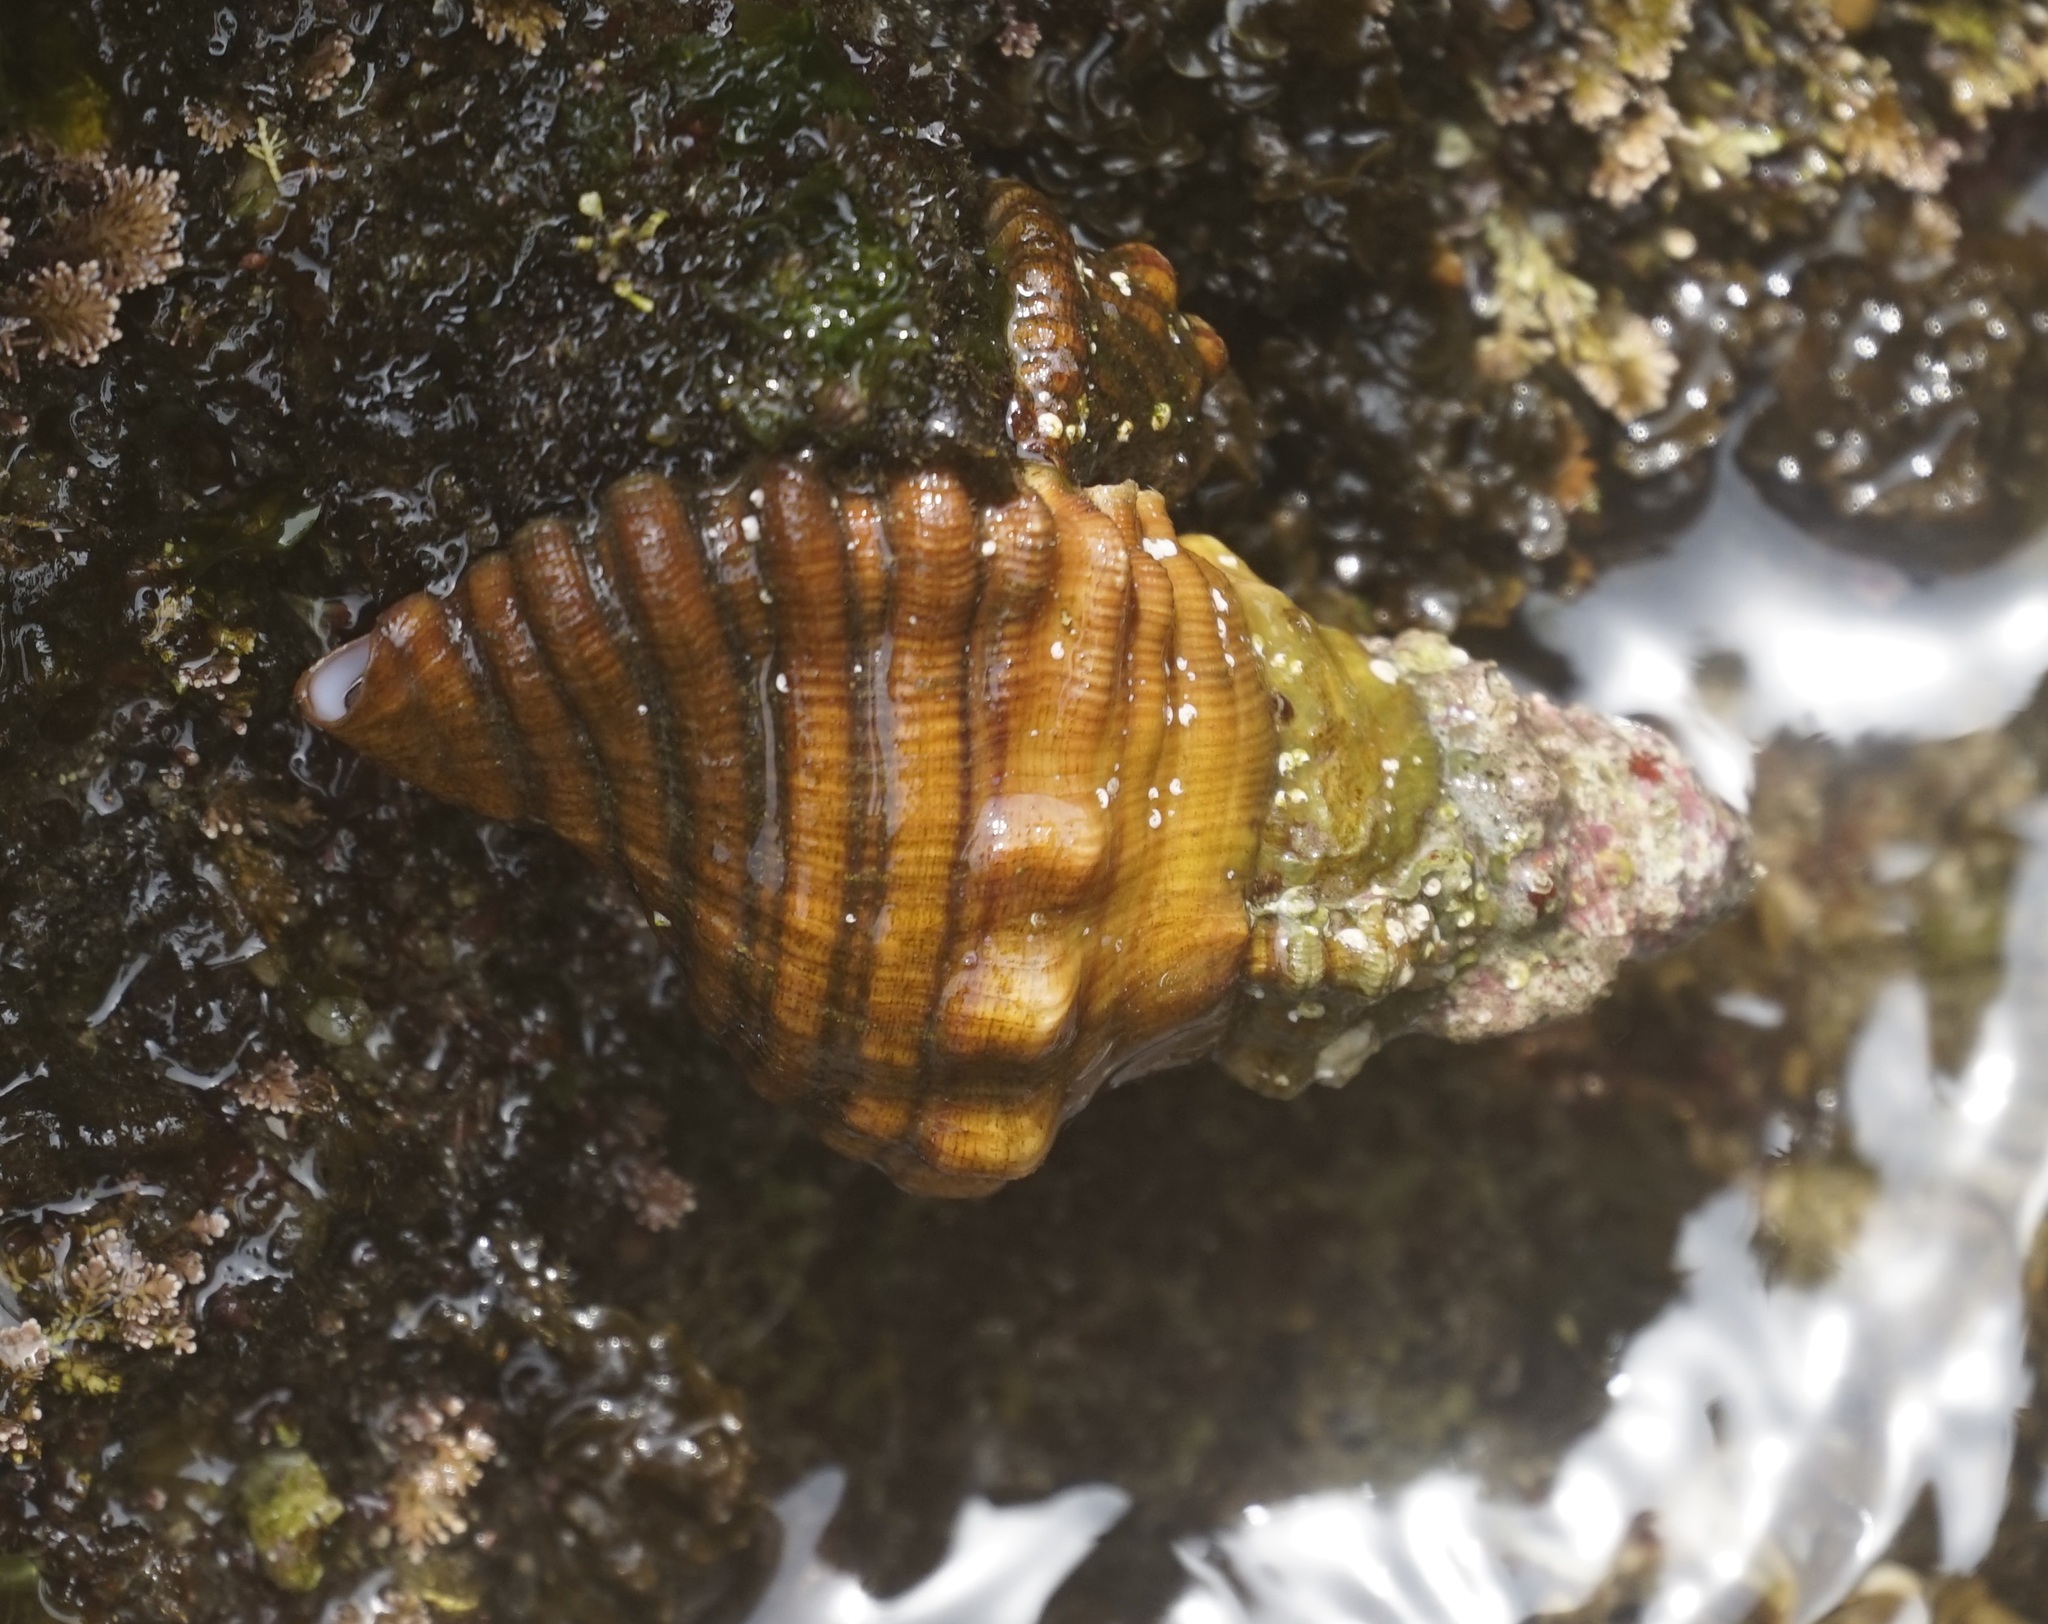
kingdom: Animalia
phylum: Mollusca
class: Gastropoda
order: Littorinimorpha
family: Cymatiidae
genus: Cabestana
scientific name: Cabestana spengleri
